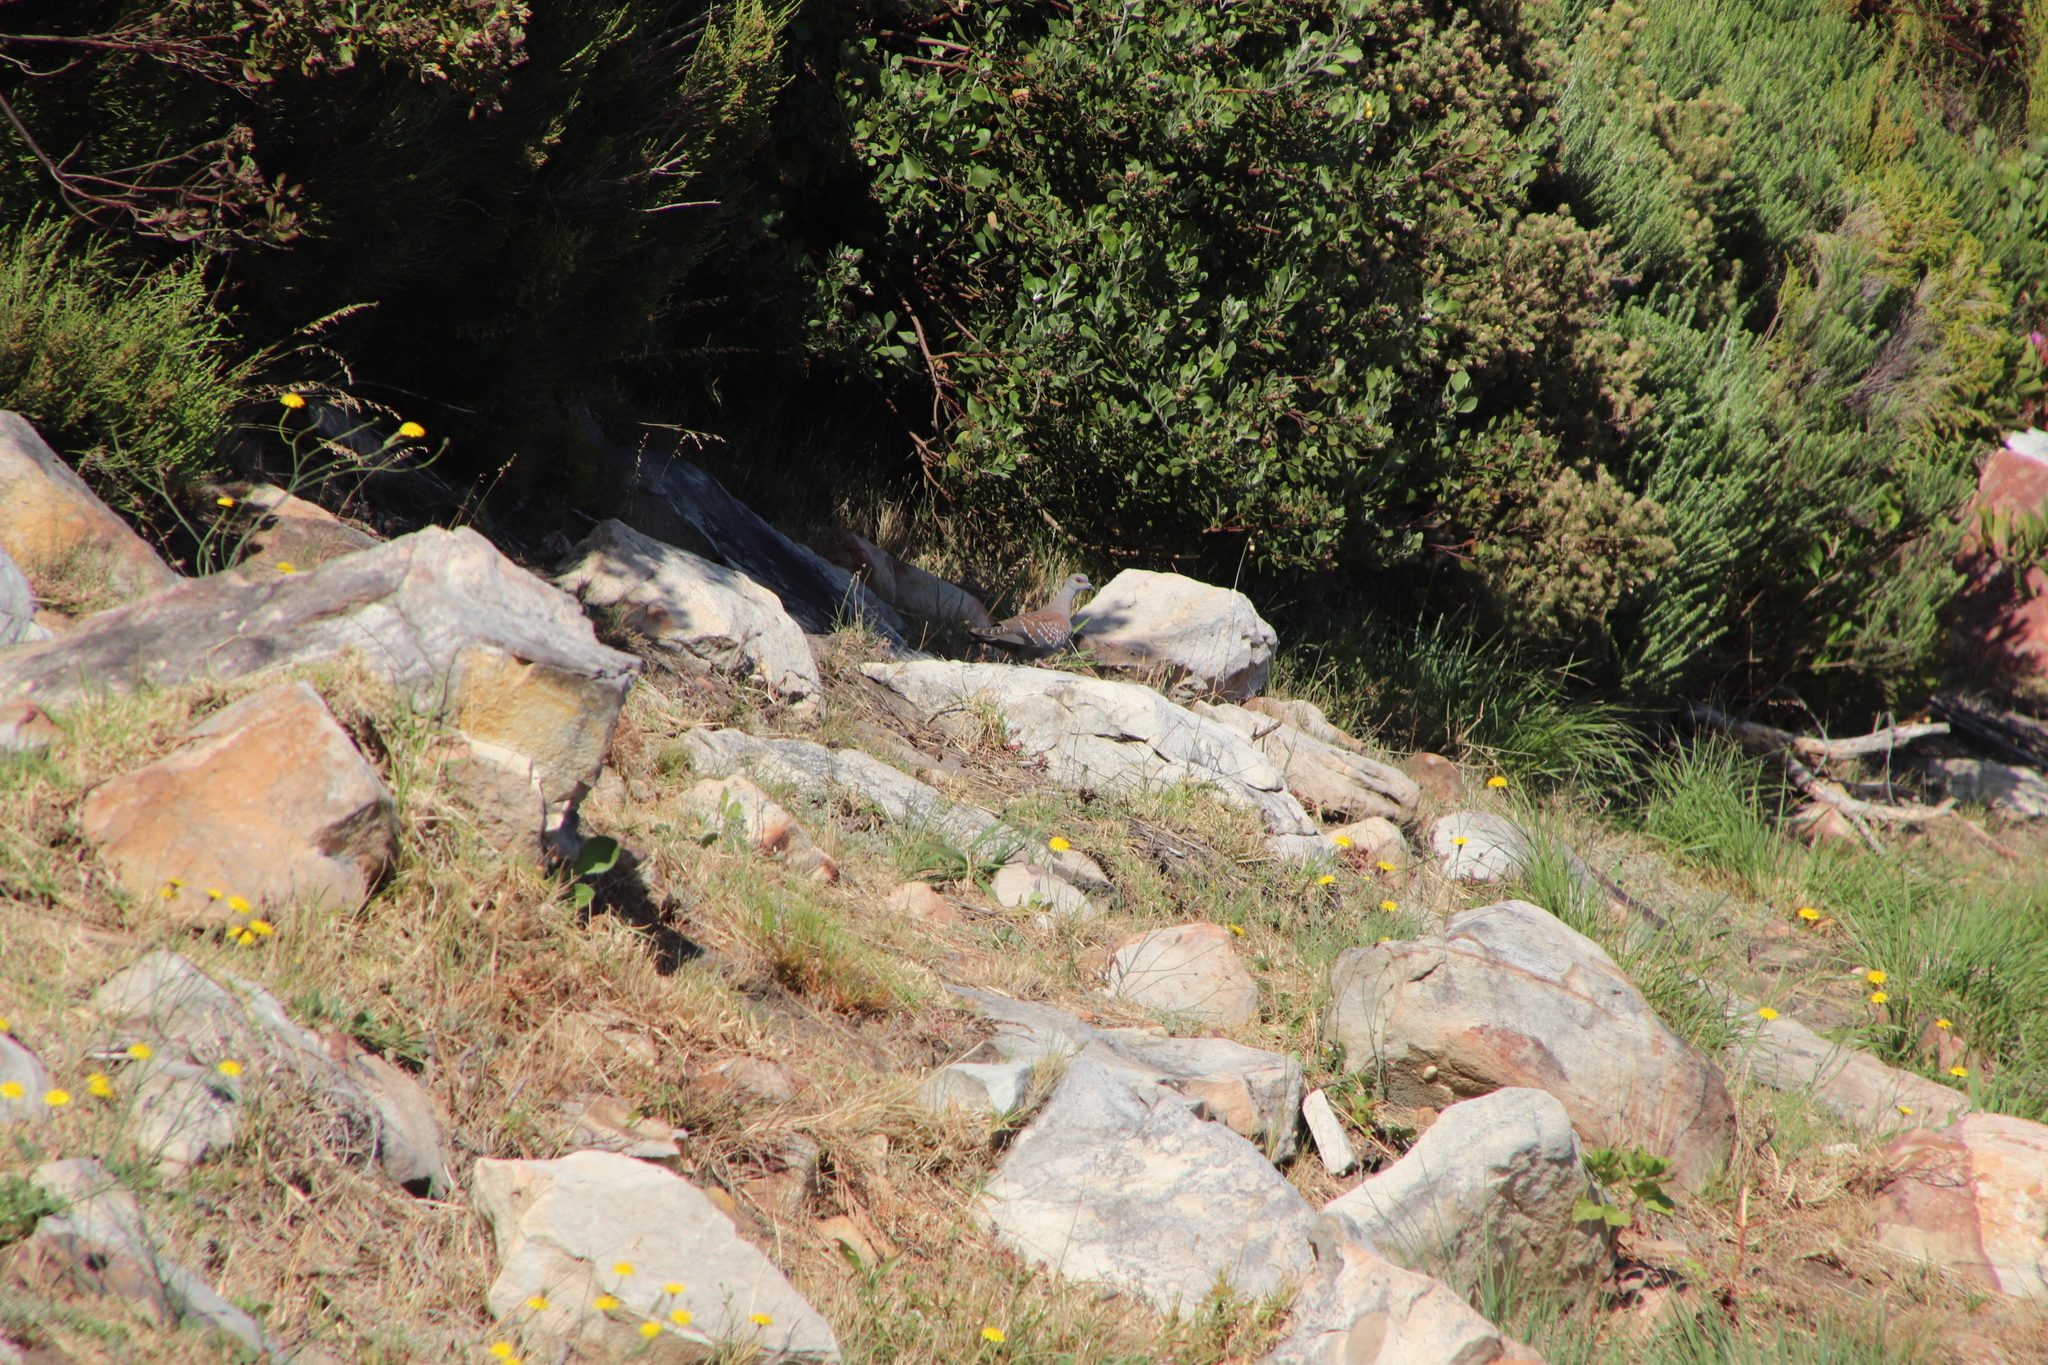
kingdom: Animalia
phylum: Chordata
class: Aves
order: Columbiformes
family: Columbidae
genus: Columba
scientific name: Columba guinea
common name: Speckled pigeon
